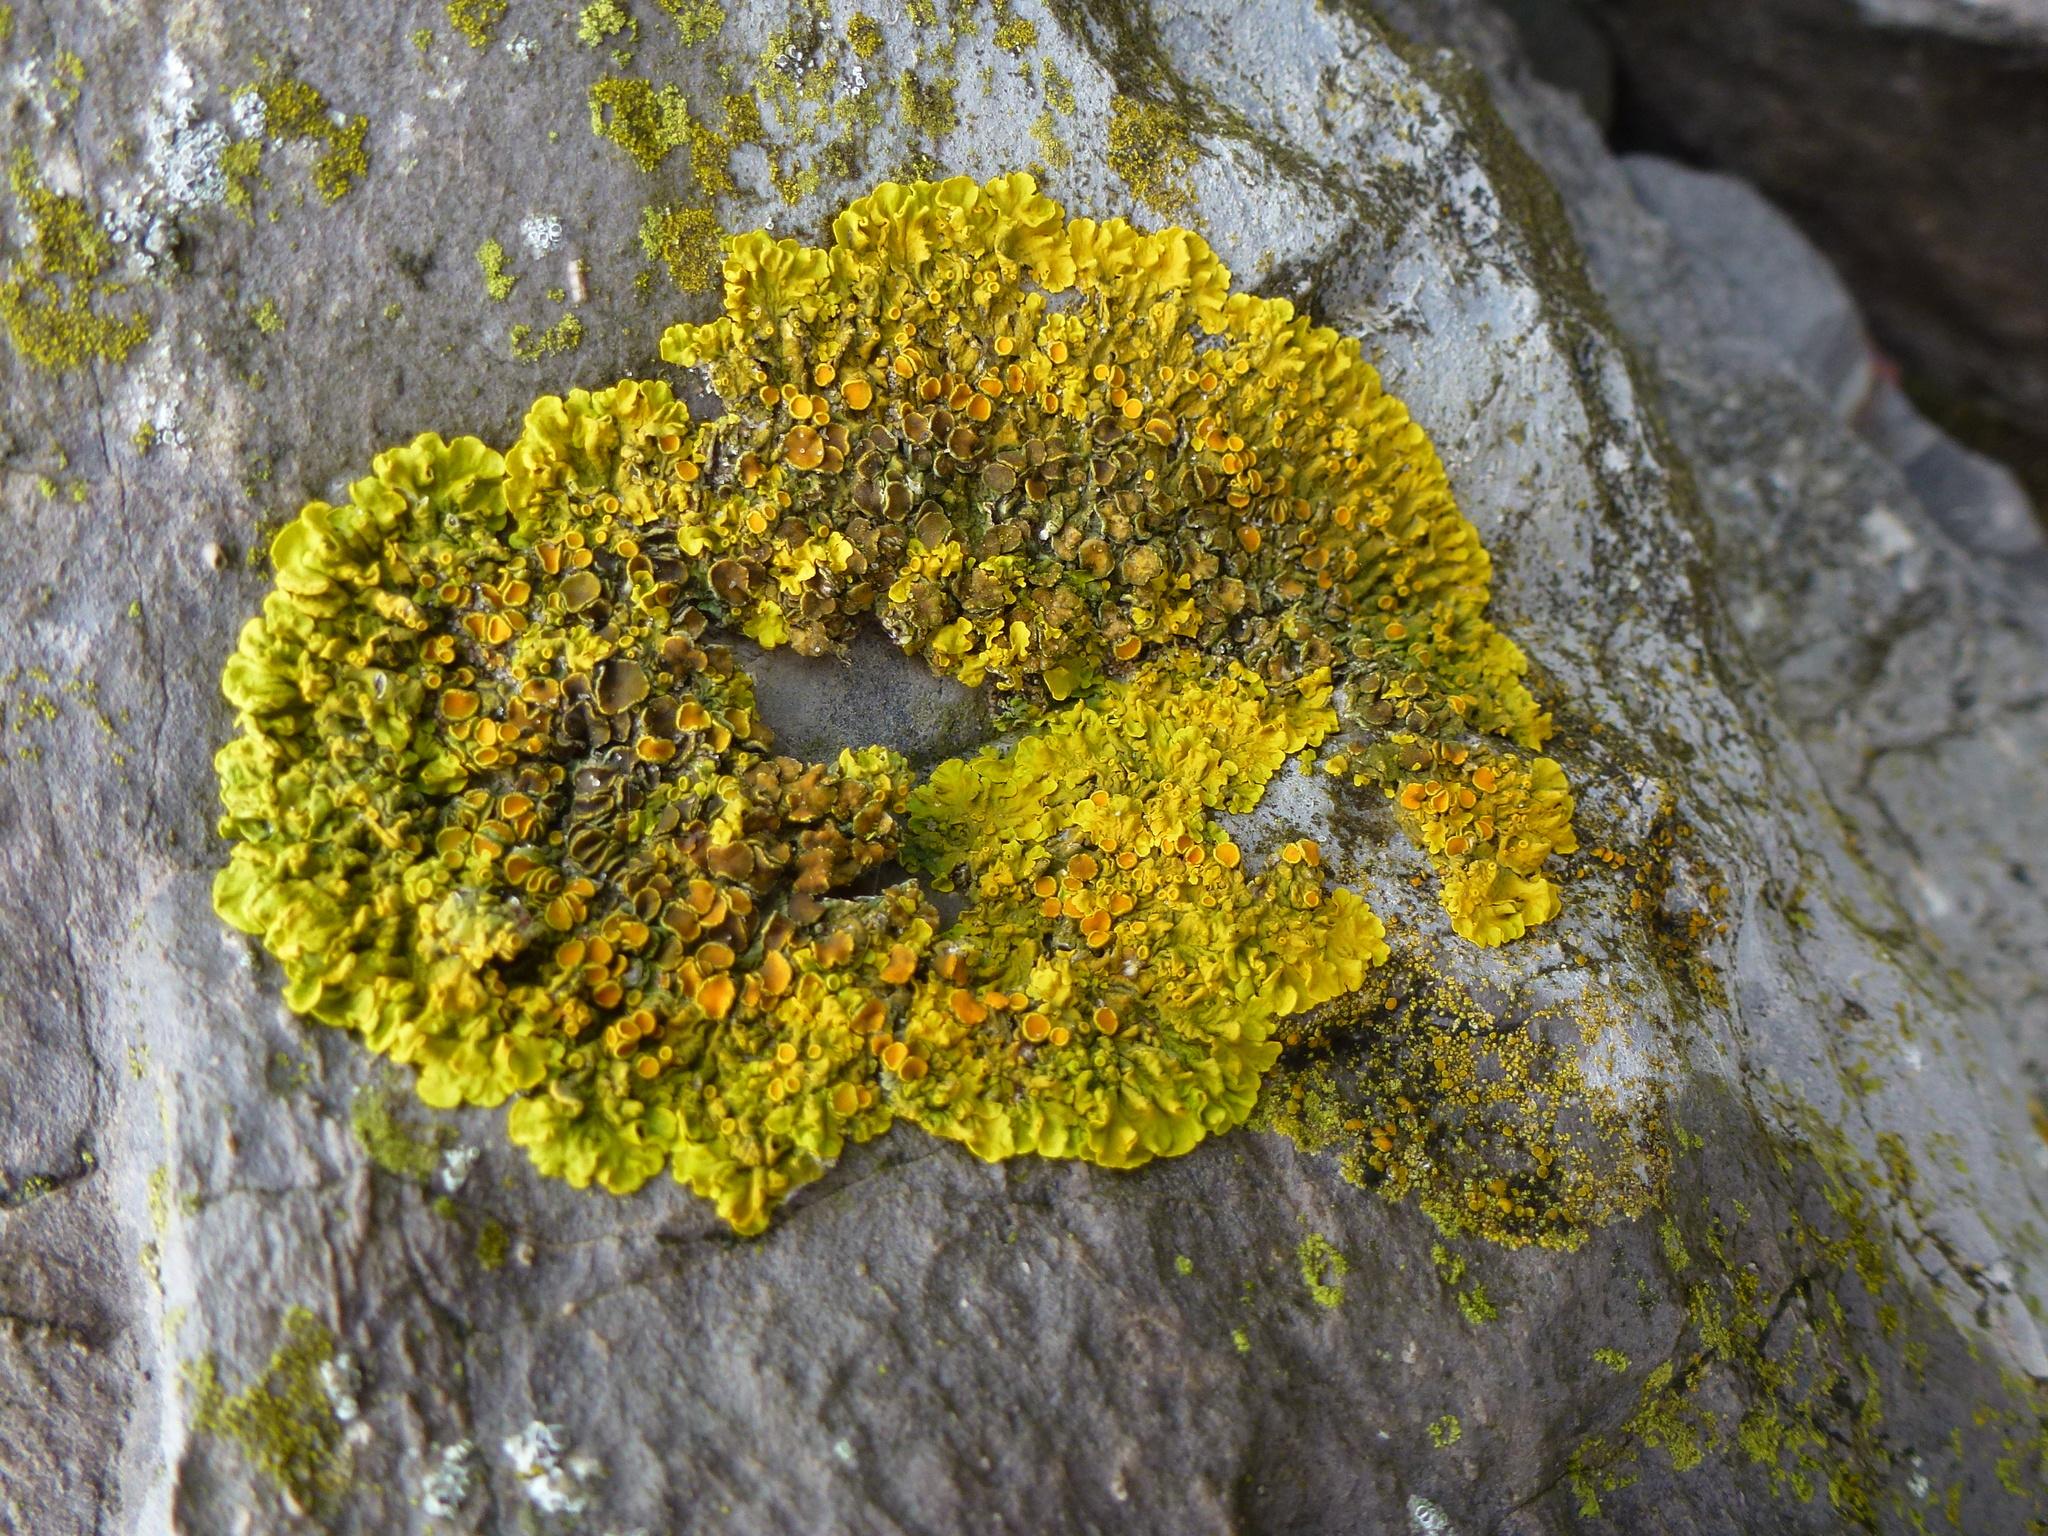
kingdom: Fungi
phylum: Ascomycota
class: Lecanoromycetes
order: Teloschistales
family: Teloschistaceae
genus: Xanthoria
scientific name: Xanthoria parietina
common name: Common orange lichen
